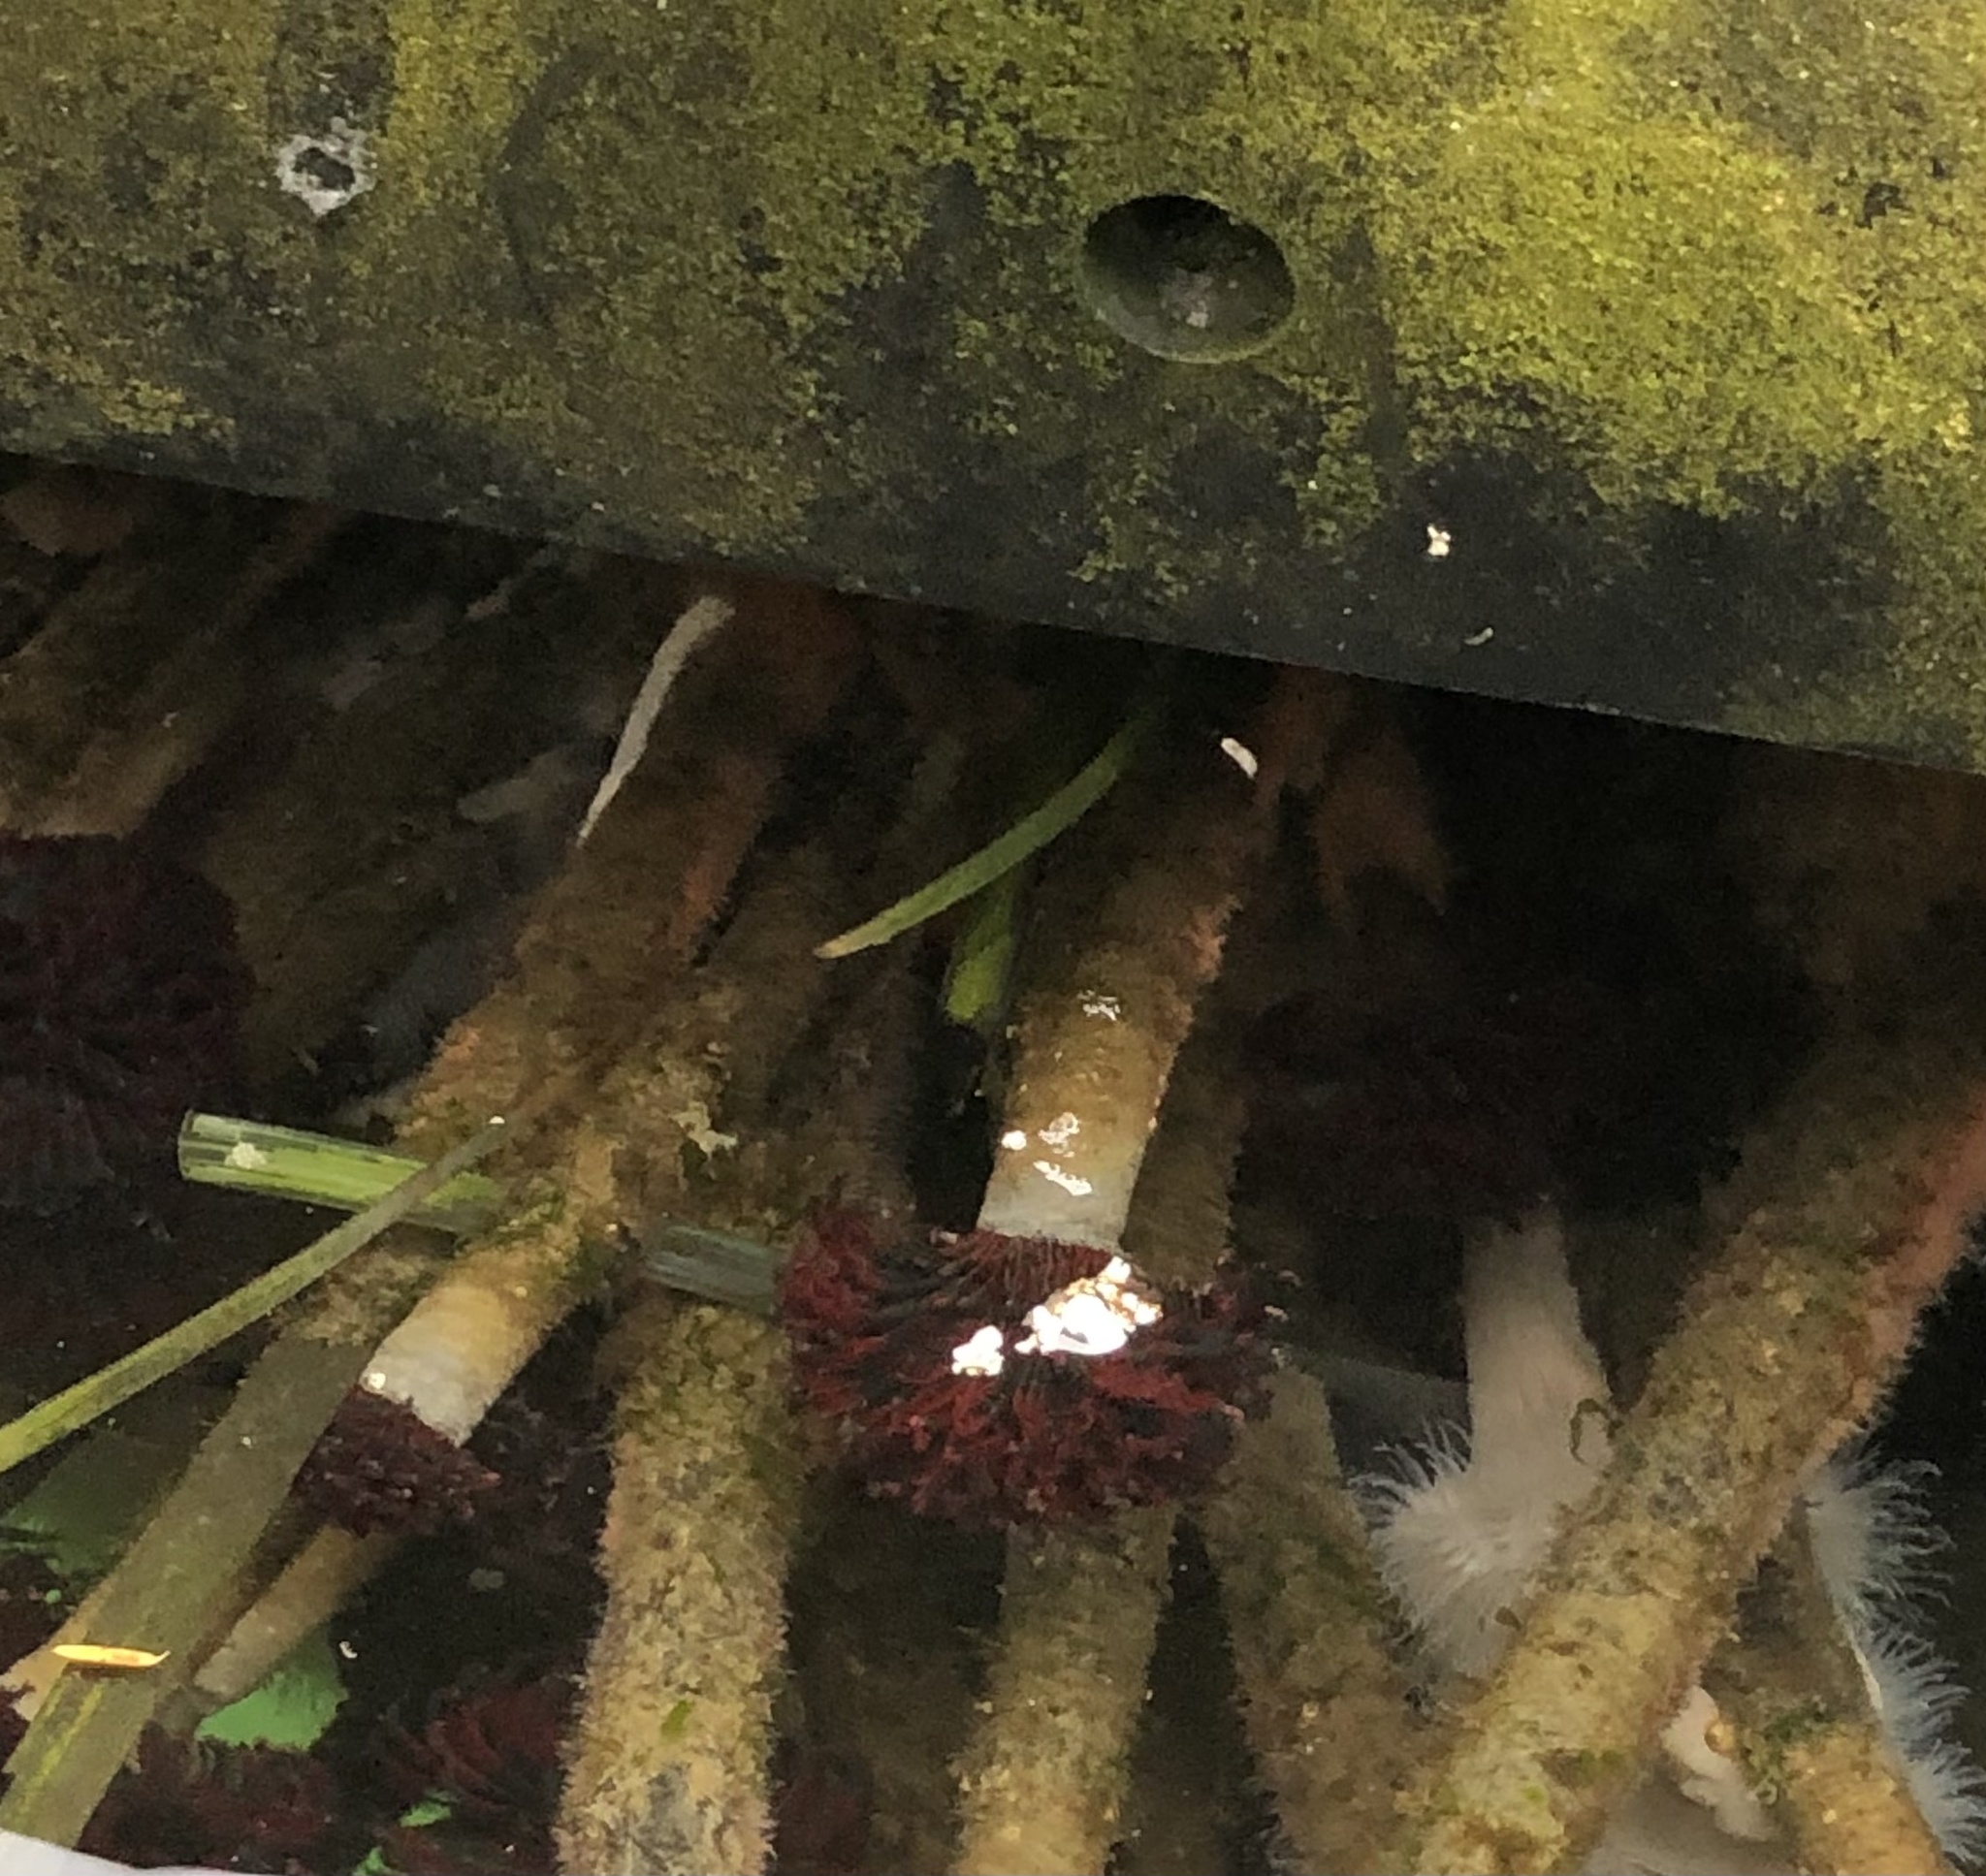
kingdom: Animalia
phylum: Annelida
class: Polychaeta
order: Sabellida
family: Sabellidae
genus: Eudistylia
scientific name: Eudistylia vancouveri
